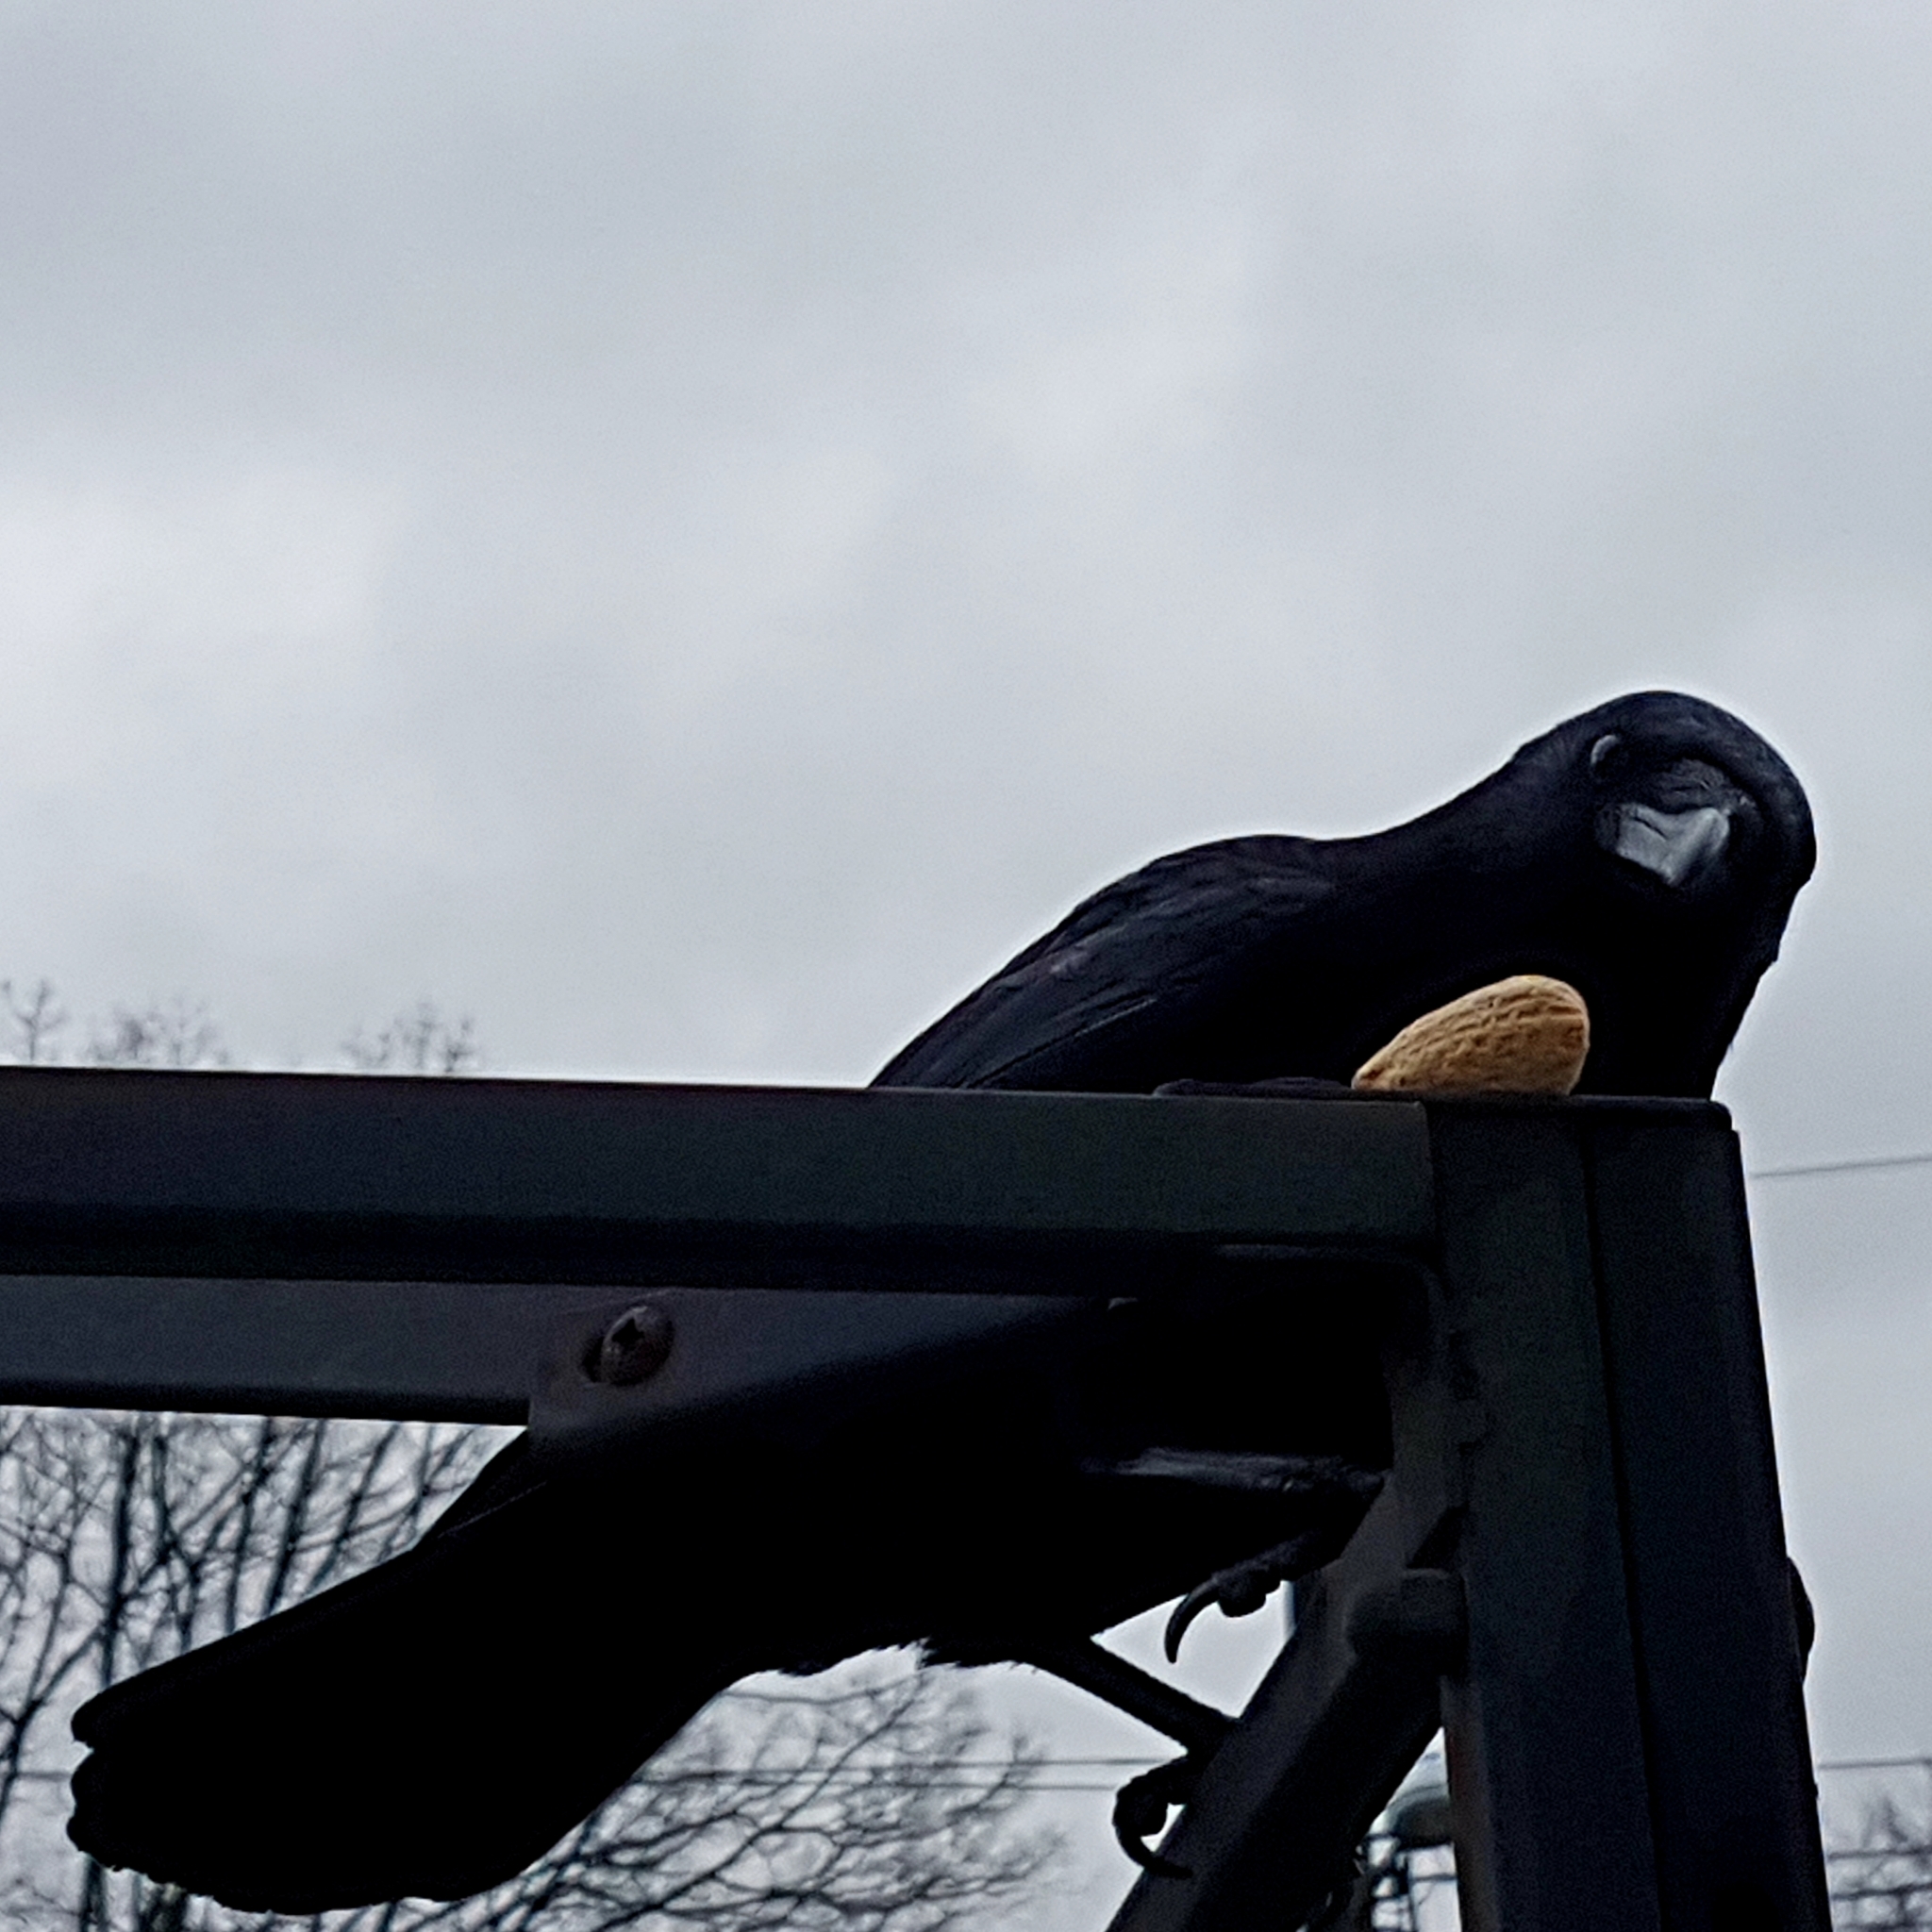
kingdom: Animalia
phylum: Chordata
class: Aves
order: Passeriformes
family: Corvidae
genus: Corvus
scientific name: Corvus brachyrhynchos
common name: American crow
